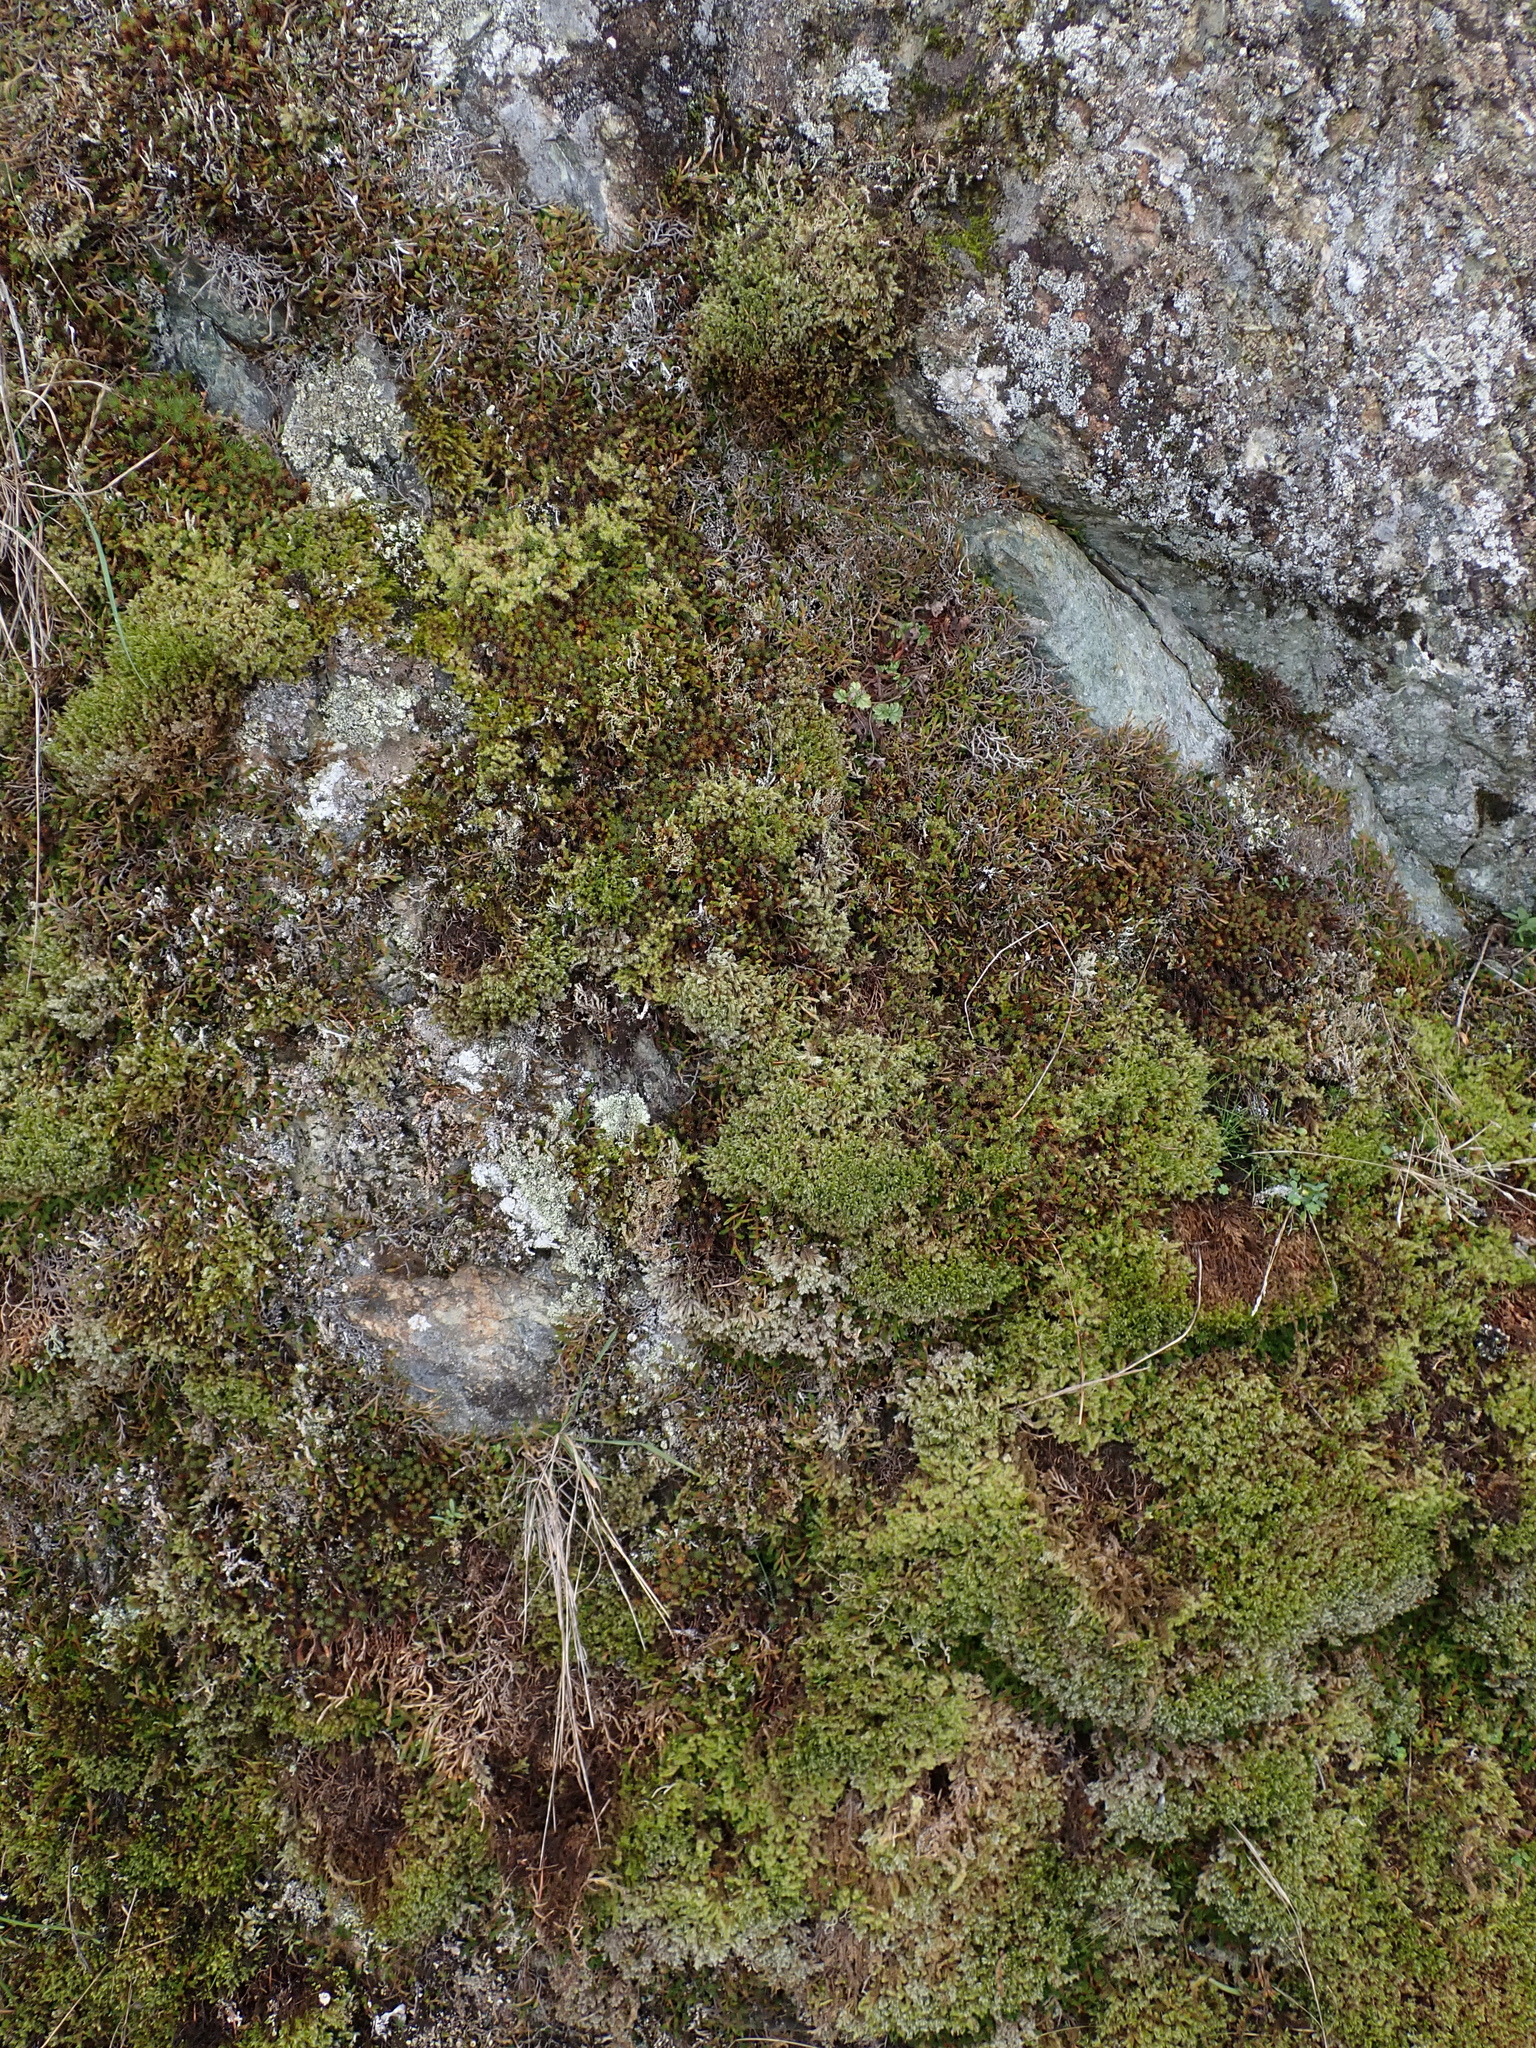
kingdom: Plantae
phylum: Bryophyta
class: Polytrichopsida
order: Polytrichales
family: Polytrichaceae
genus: Polytrichum
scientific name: Polytrichum piliferum
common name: Bristly haircap
